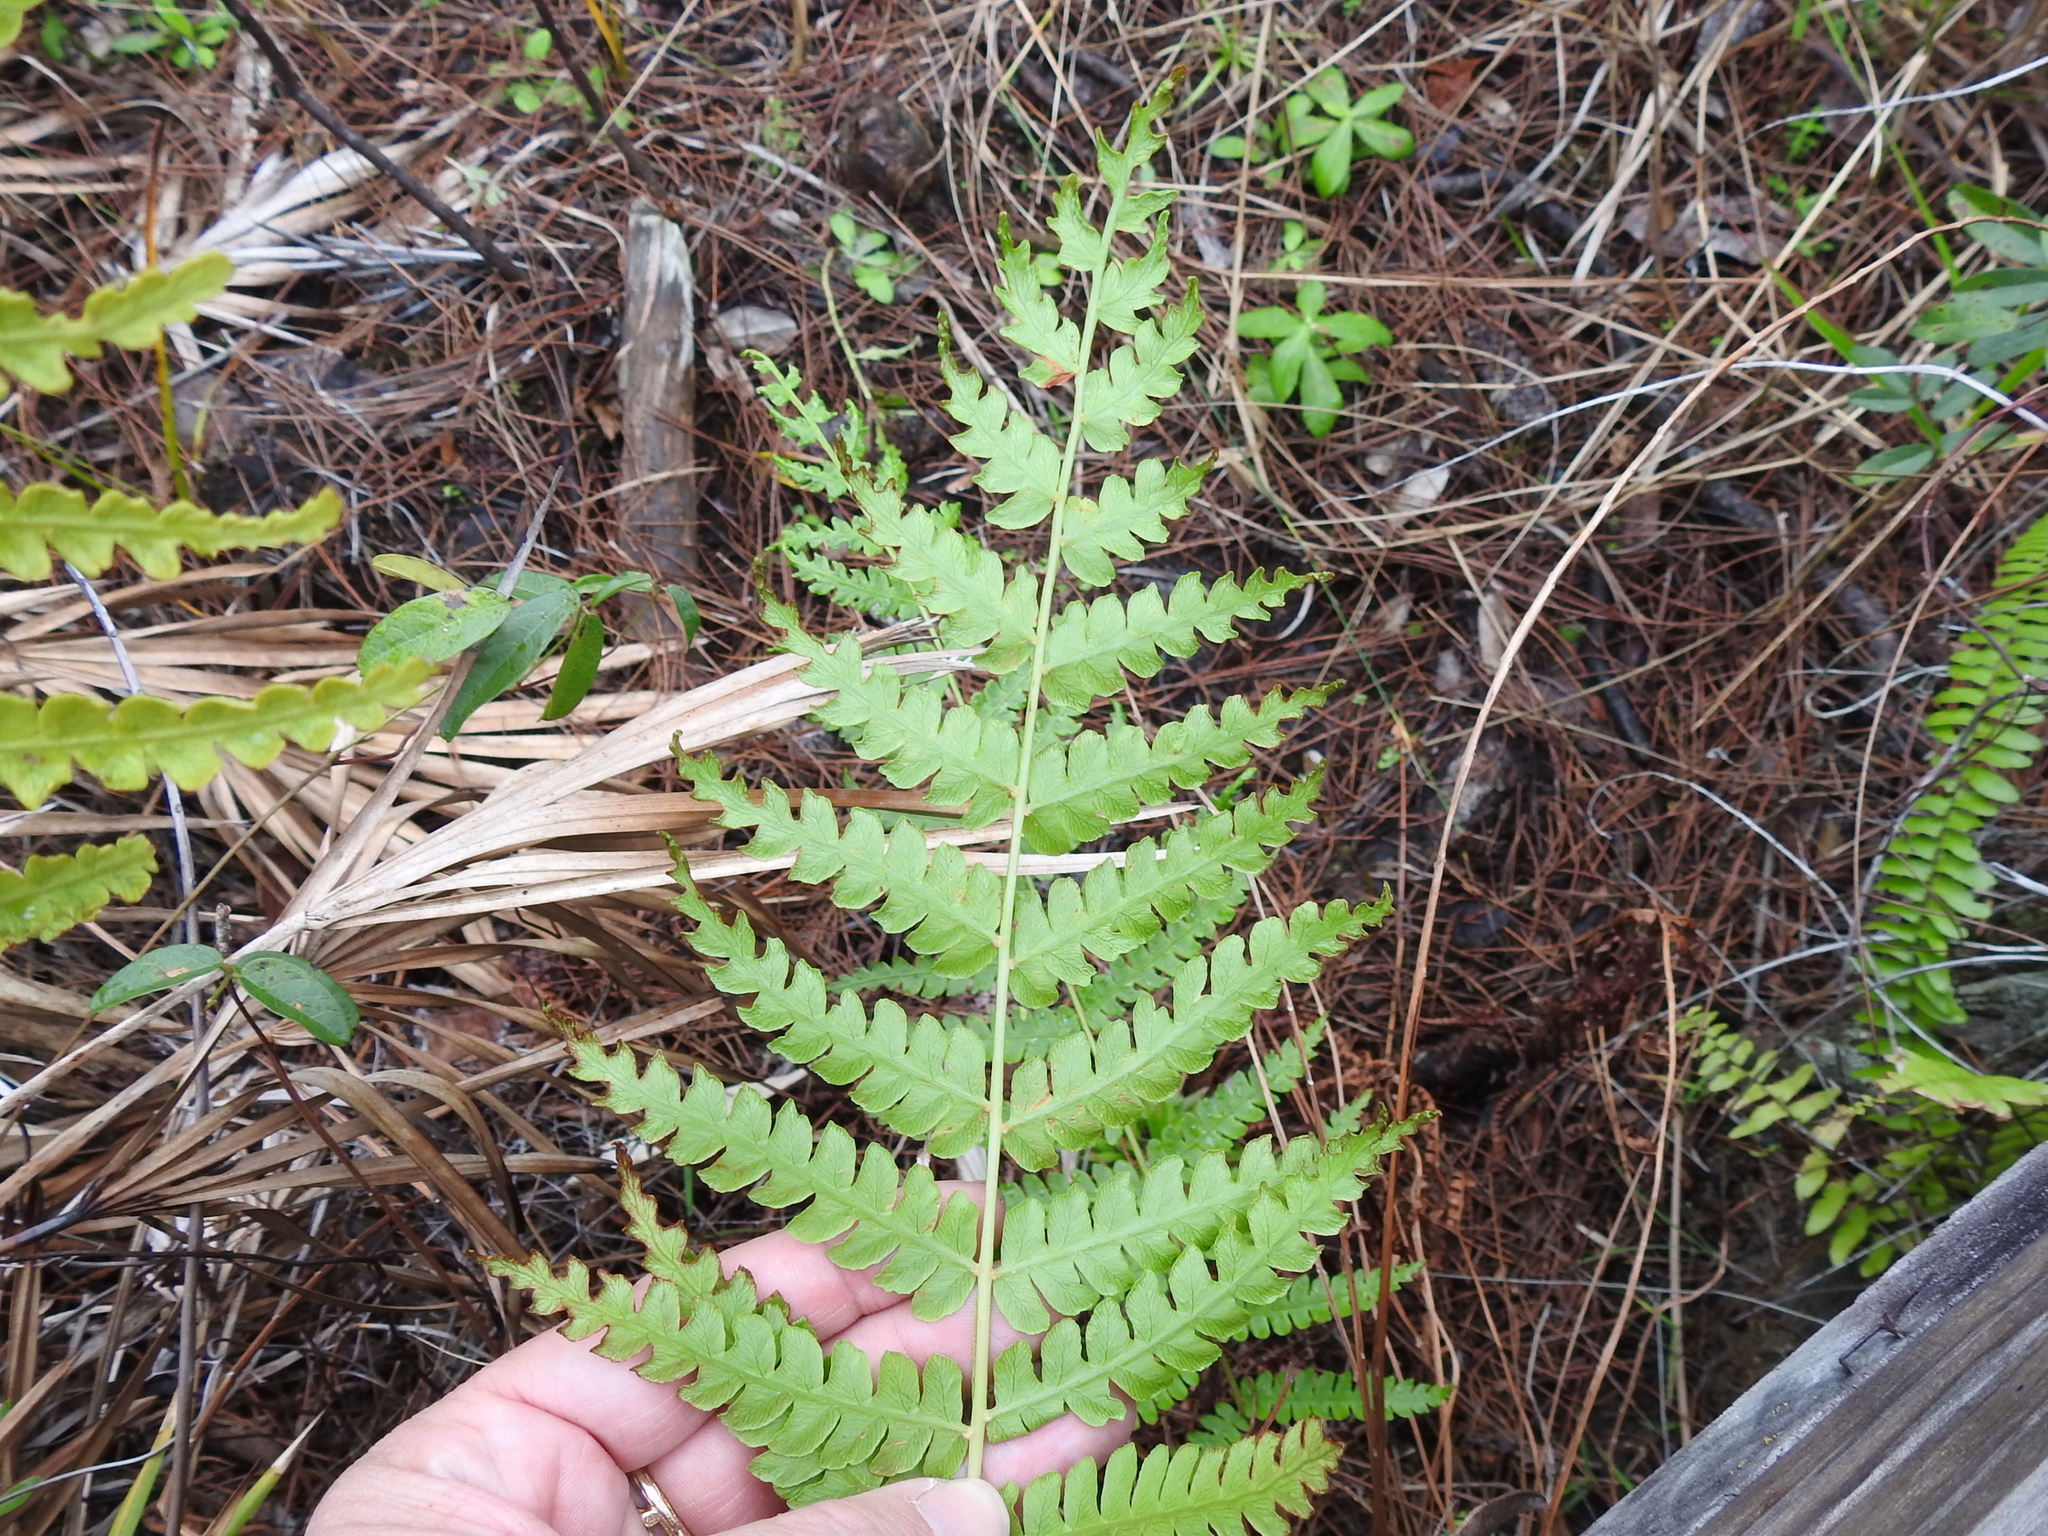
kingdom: Plantae
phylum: Tracheophyta
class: Polypodiopsida
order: Osmundales
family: Osmundaceae
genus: Osmundastrum
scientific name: Osmundastrum cinnamomeum
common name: Cinnamon fern
